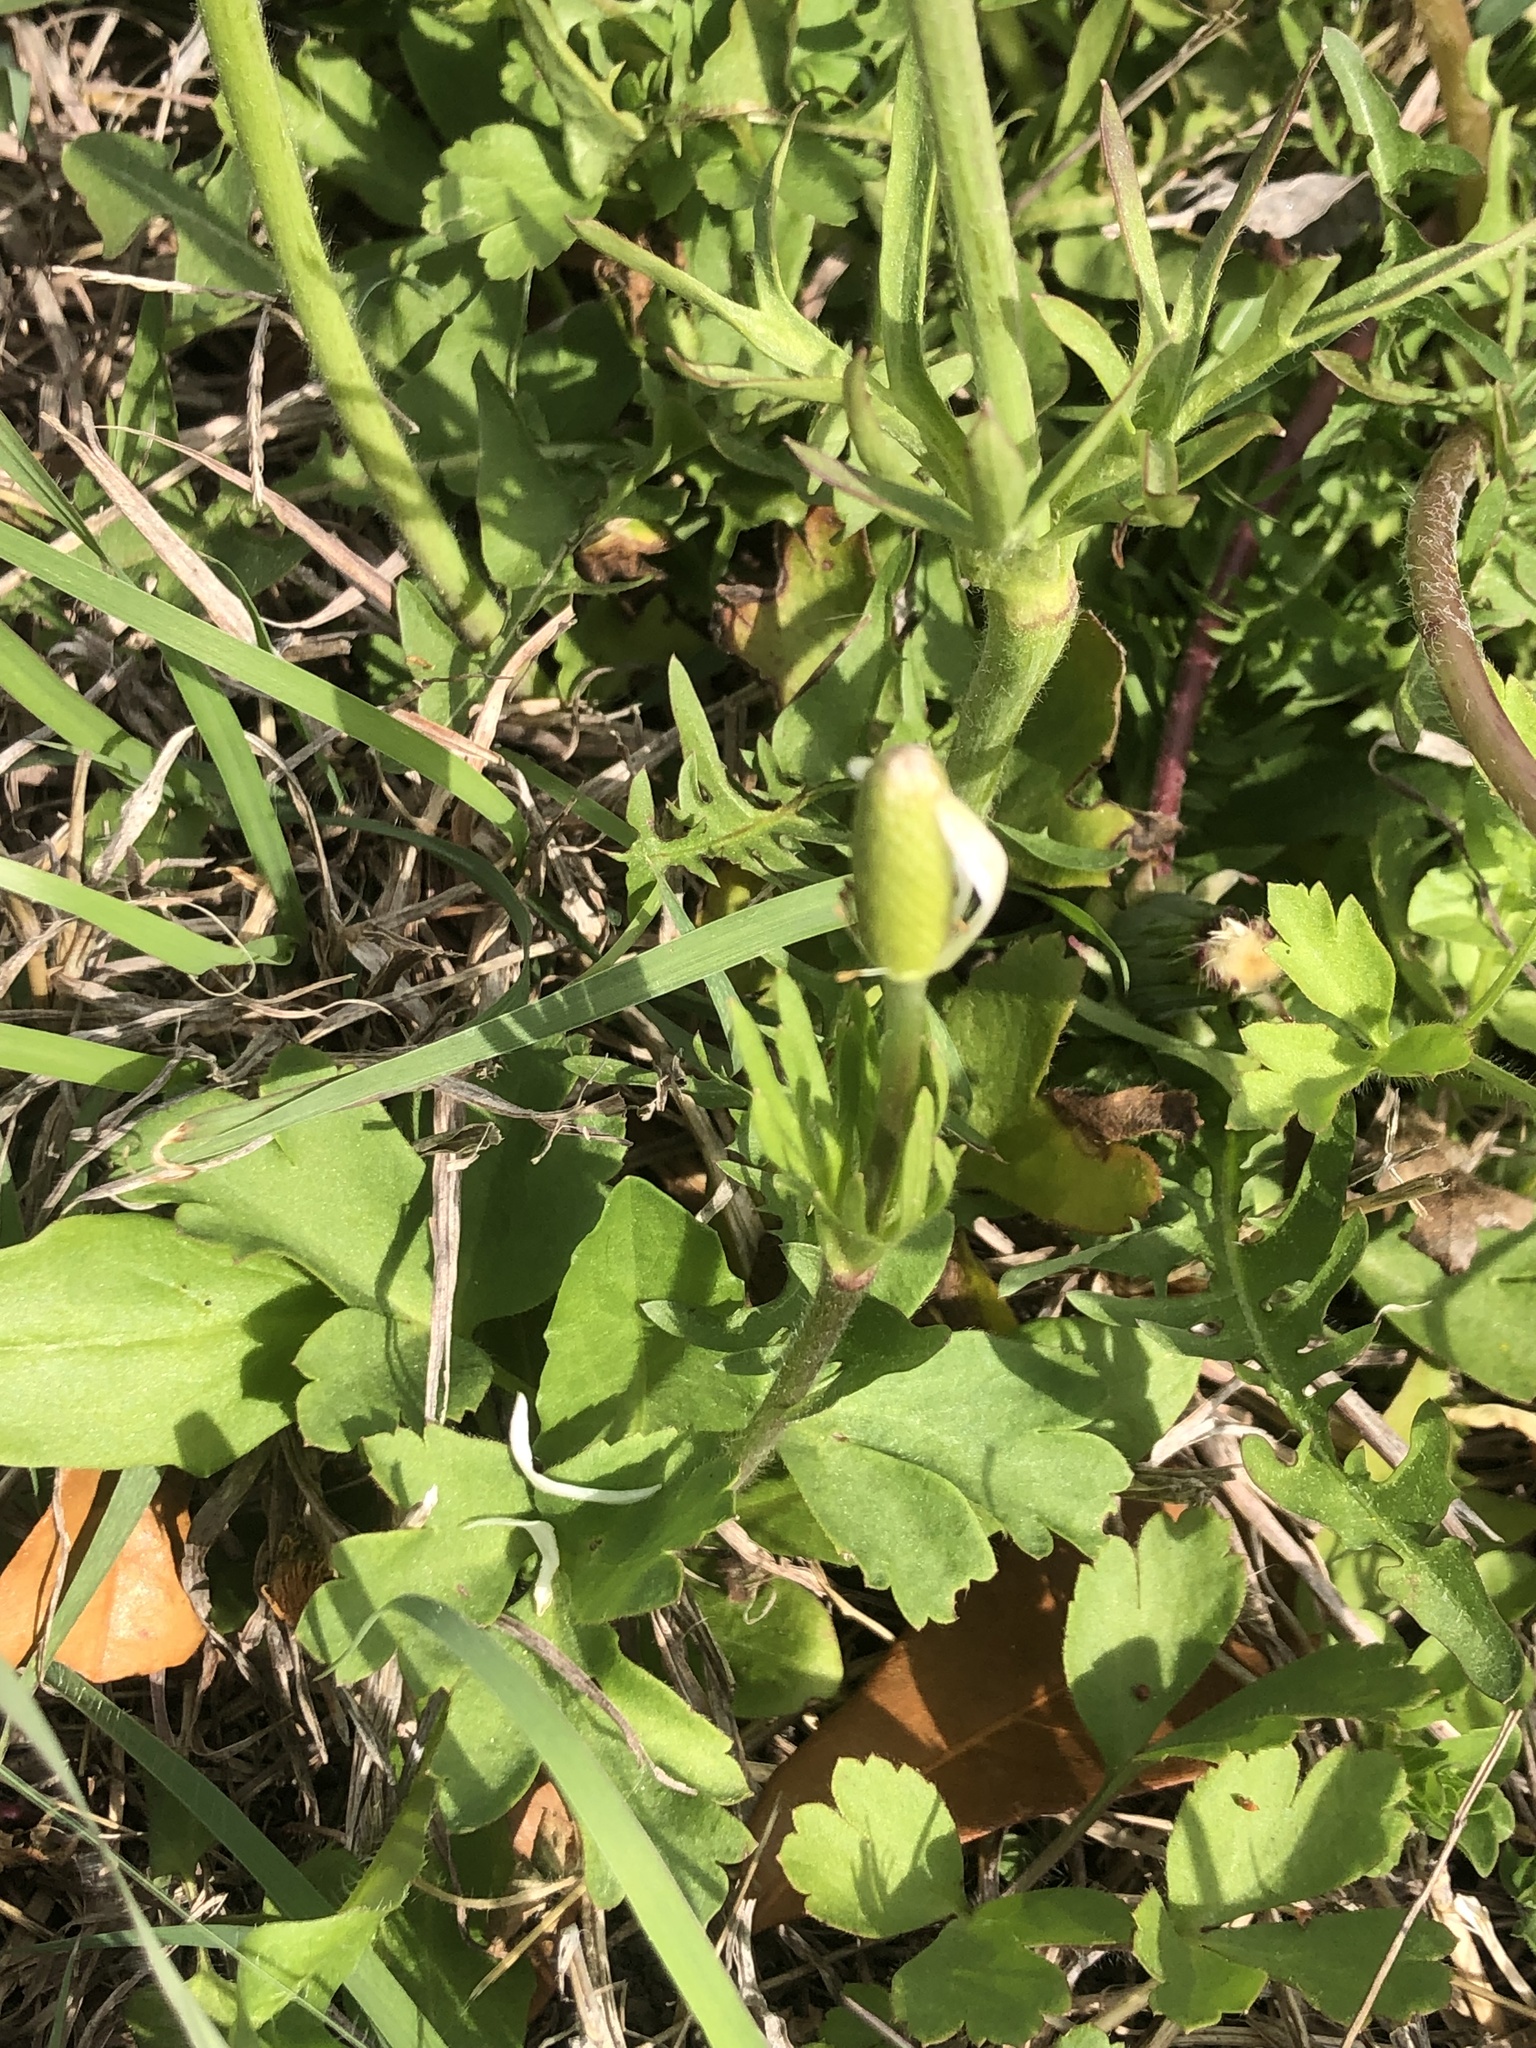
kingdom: Plantae
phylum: Tracheophyta
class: Magnoliopsida
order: Ranunculales
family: Ranunculaceae
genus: Anemone
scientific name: Anemone berlandieri
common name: Ten-petal anemone
